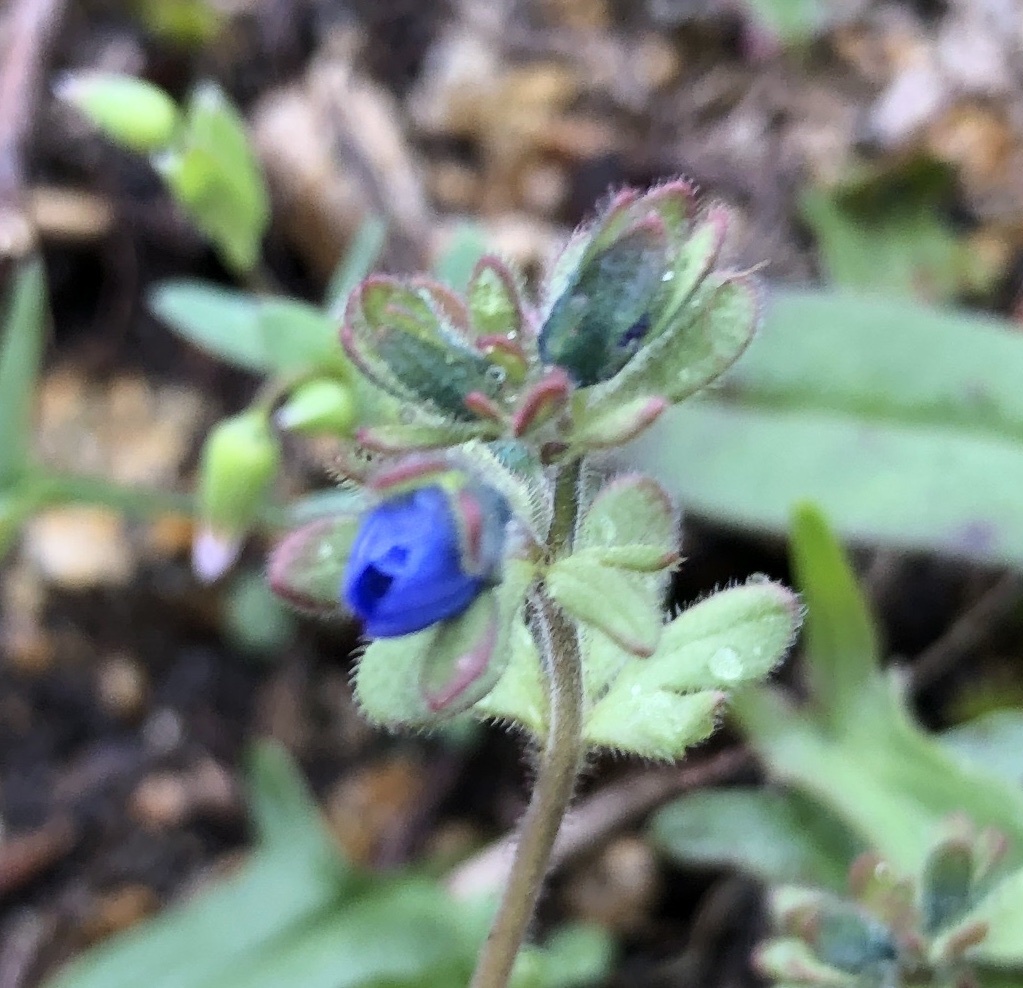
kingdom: Plantae
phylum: Tracheophyta
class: Magnoliopsida
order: Lamiales
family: Plantaginaceae
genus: Veronica
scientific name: Veronica triphyllos
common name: Fingered speedwell
